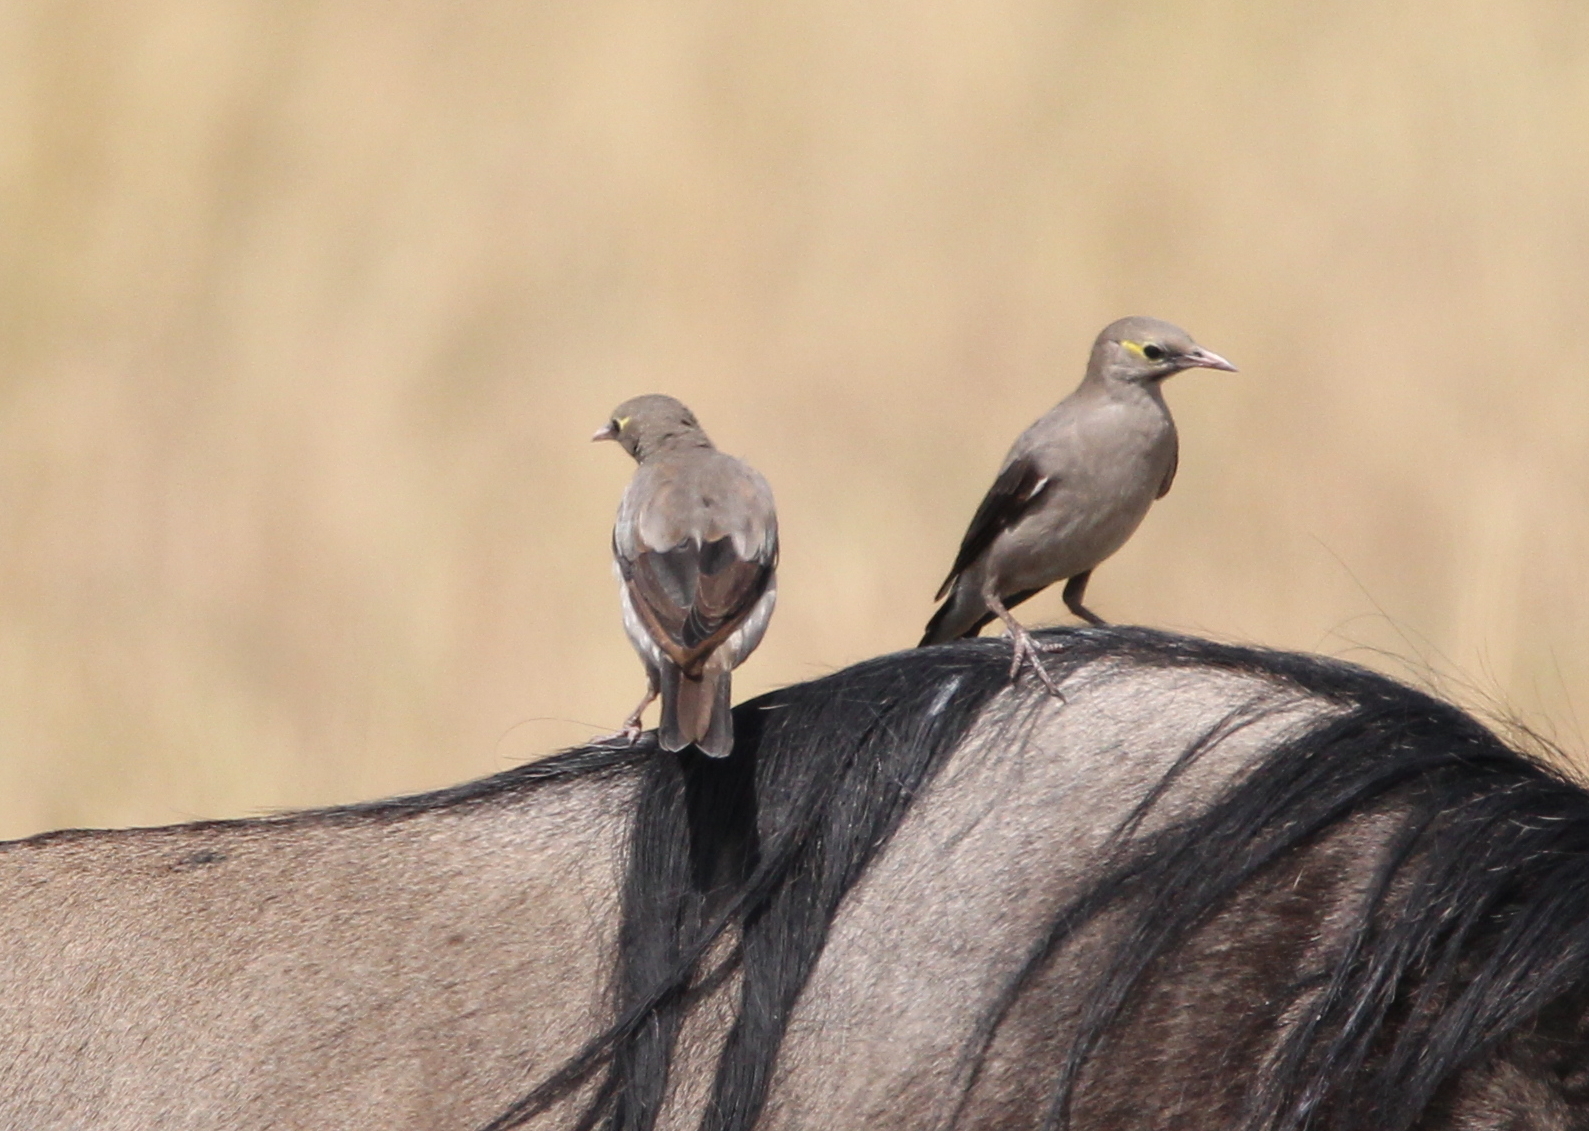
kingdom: Animalia
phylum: Chordata
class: Aves
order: Passeriformes
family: Sturnidae
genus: Creatophora
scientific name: Creatophora cinerea
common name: Wattled starling
